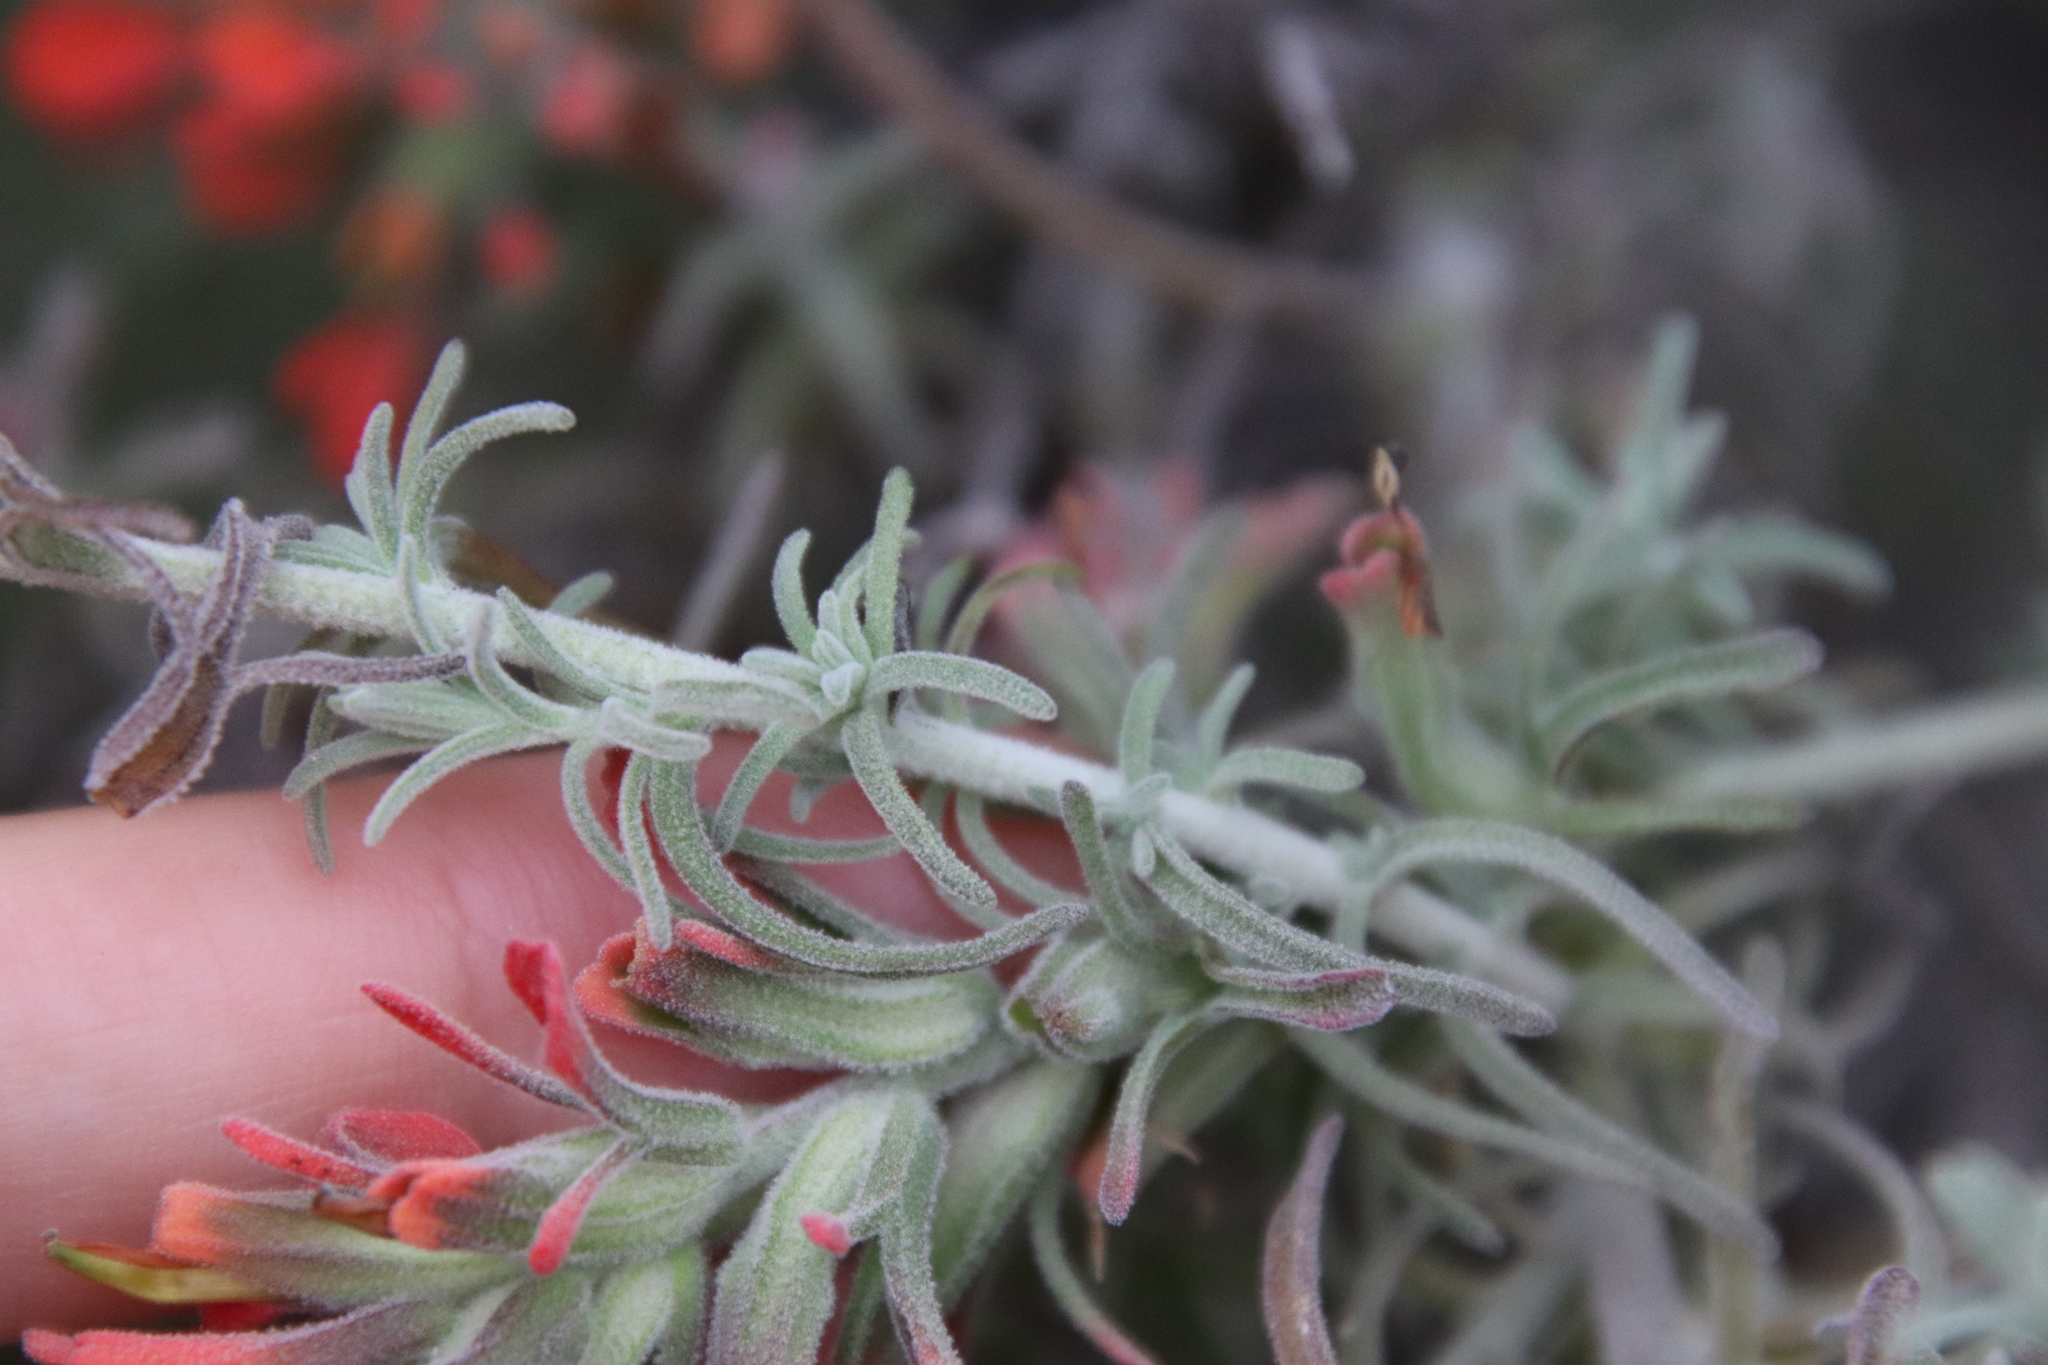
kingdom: Plantae
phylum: Tracheophyta
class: Magnoliopsida
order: Lamiales
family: Orobanchaceae
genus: Castilleja
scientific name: Castilleja foliolosa
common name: Woolly indian paintbrush
